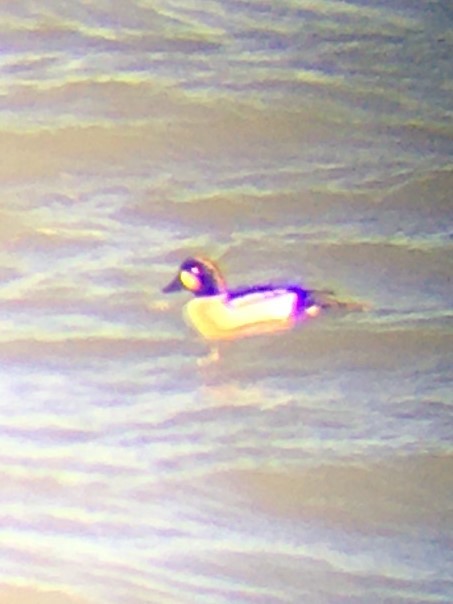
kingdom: Animalia
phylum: Chordata
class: Aves
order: Anseriformes
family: Anatidae
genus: Bucephala
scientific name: Bucephala
